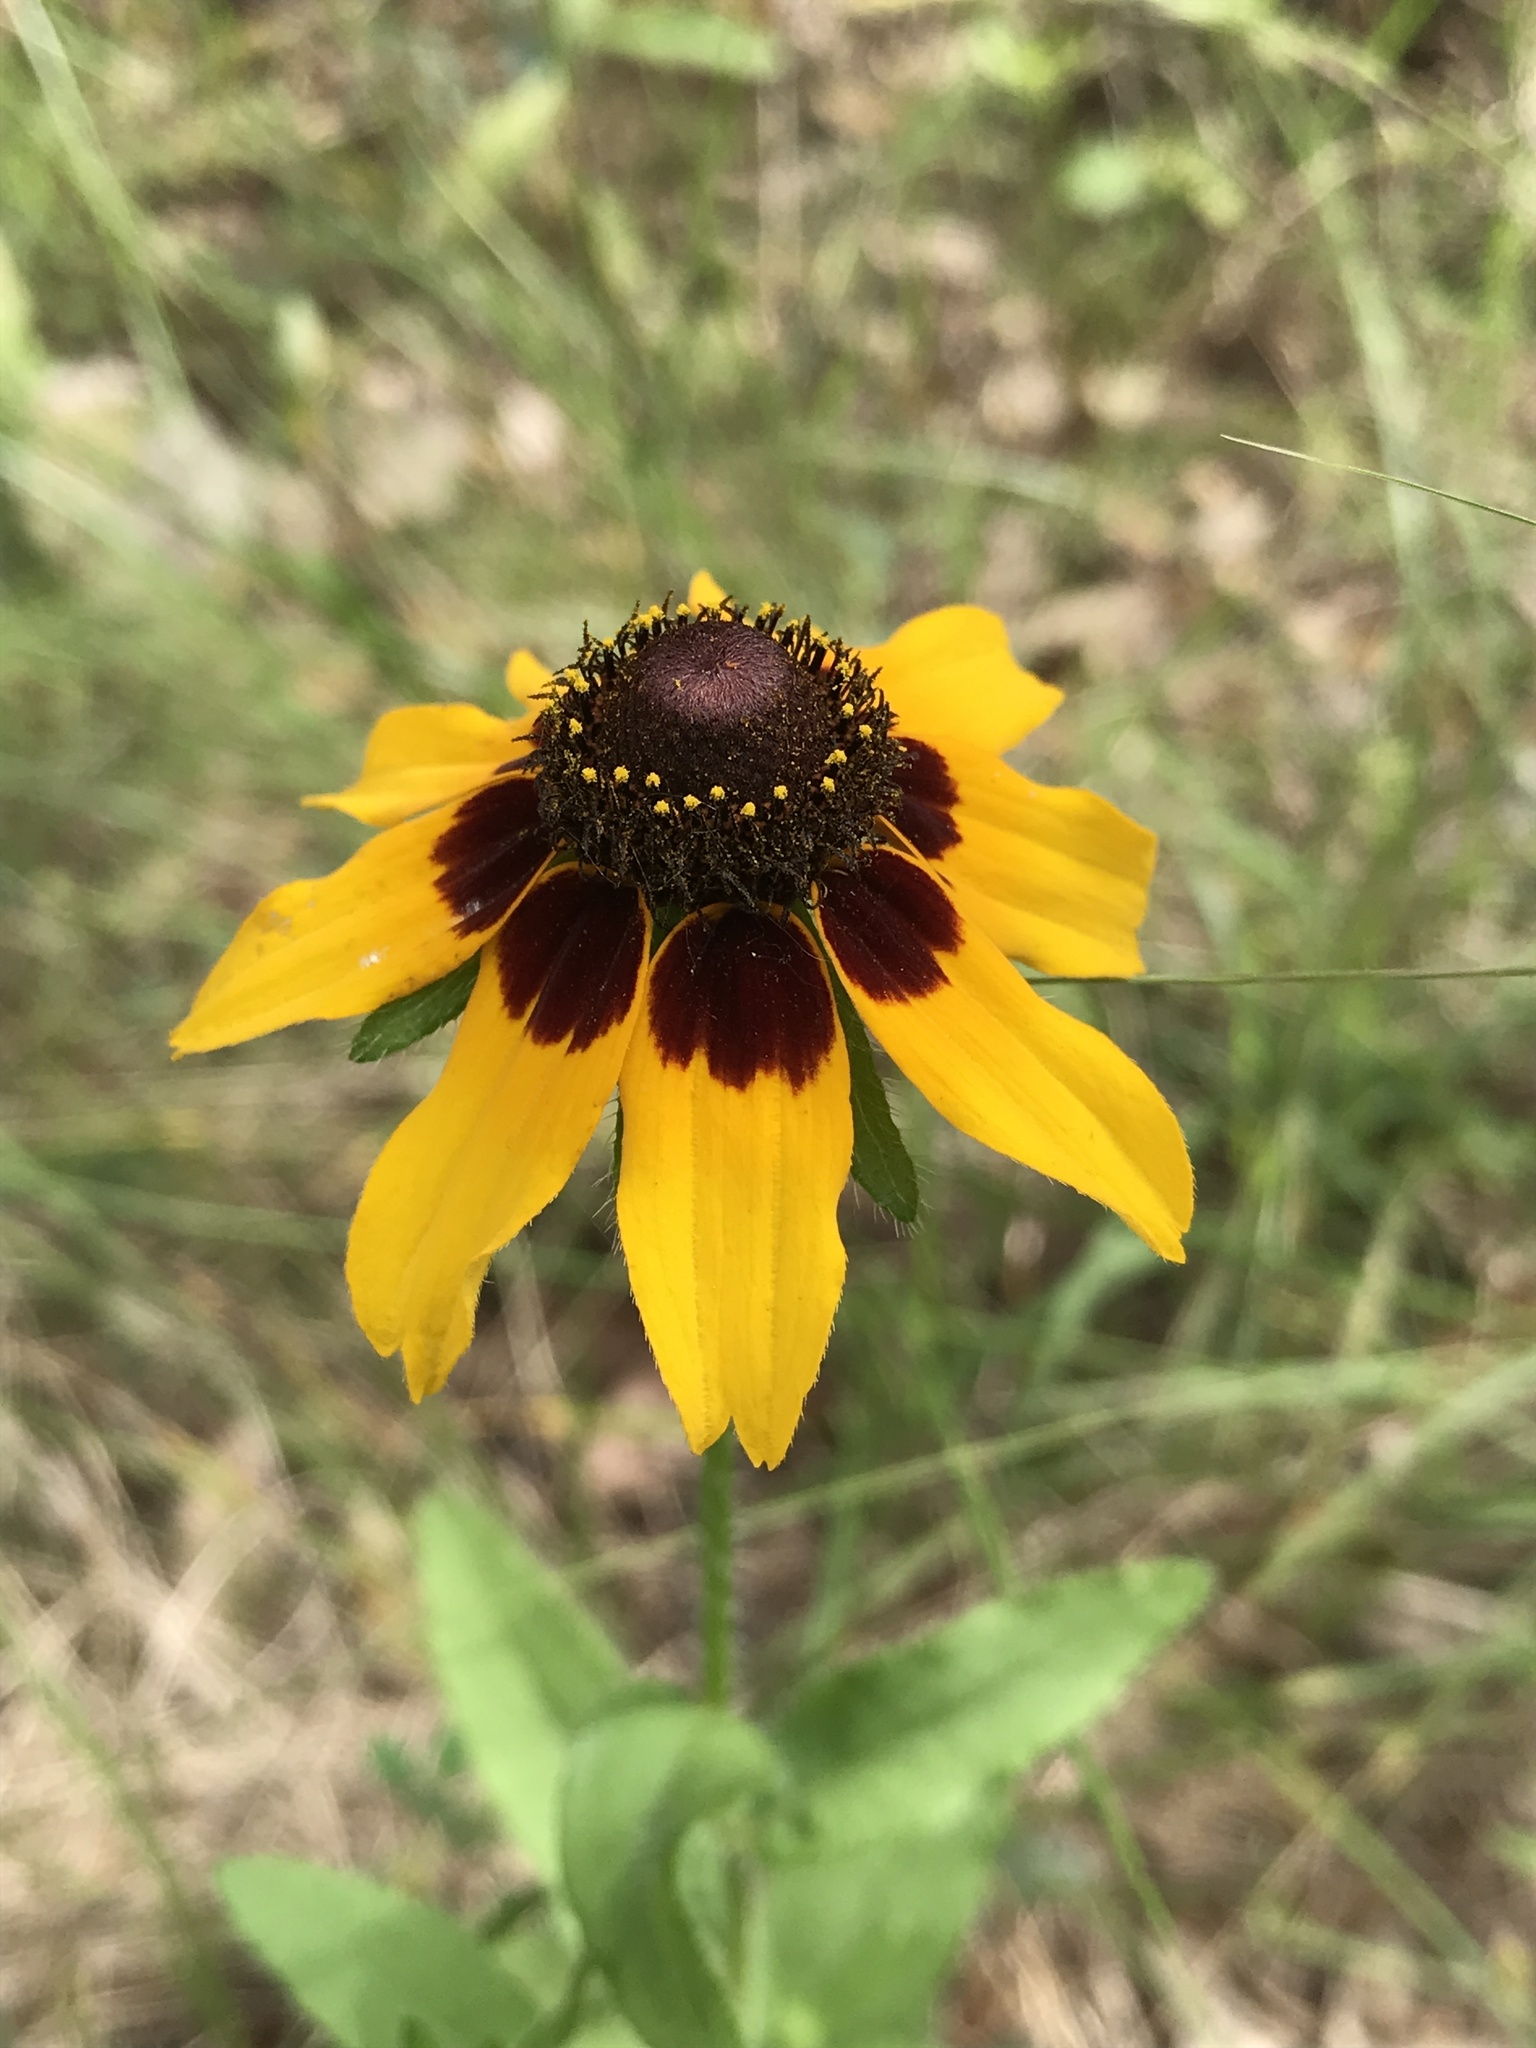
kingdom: Plantae
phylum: Tracheophyta
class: Magnoliopsida
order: Asterales
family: Asteraceae
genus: Rudbeckia
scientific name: Rudbeckia hirta
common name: Black-eyed-susan
